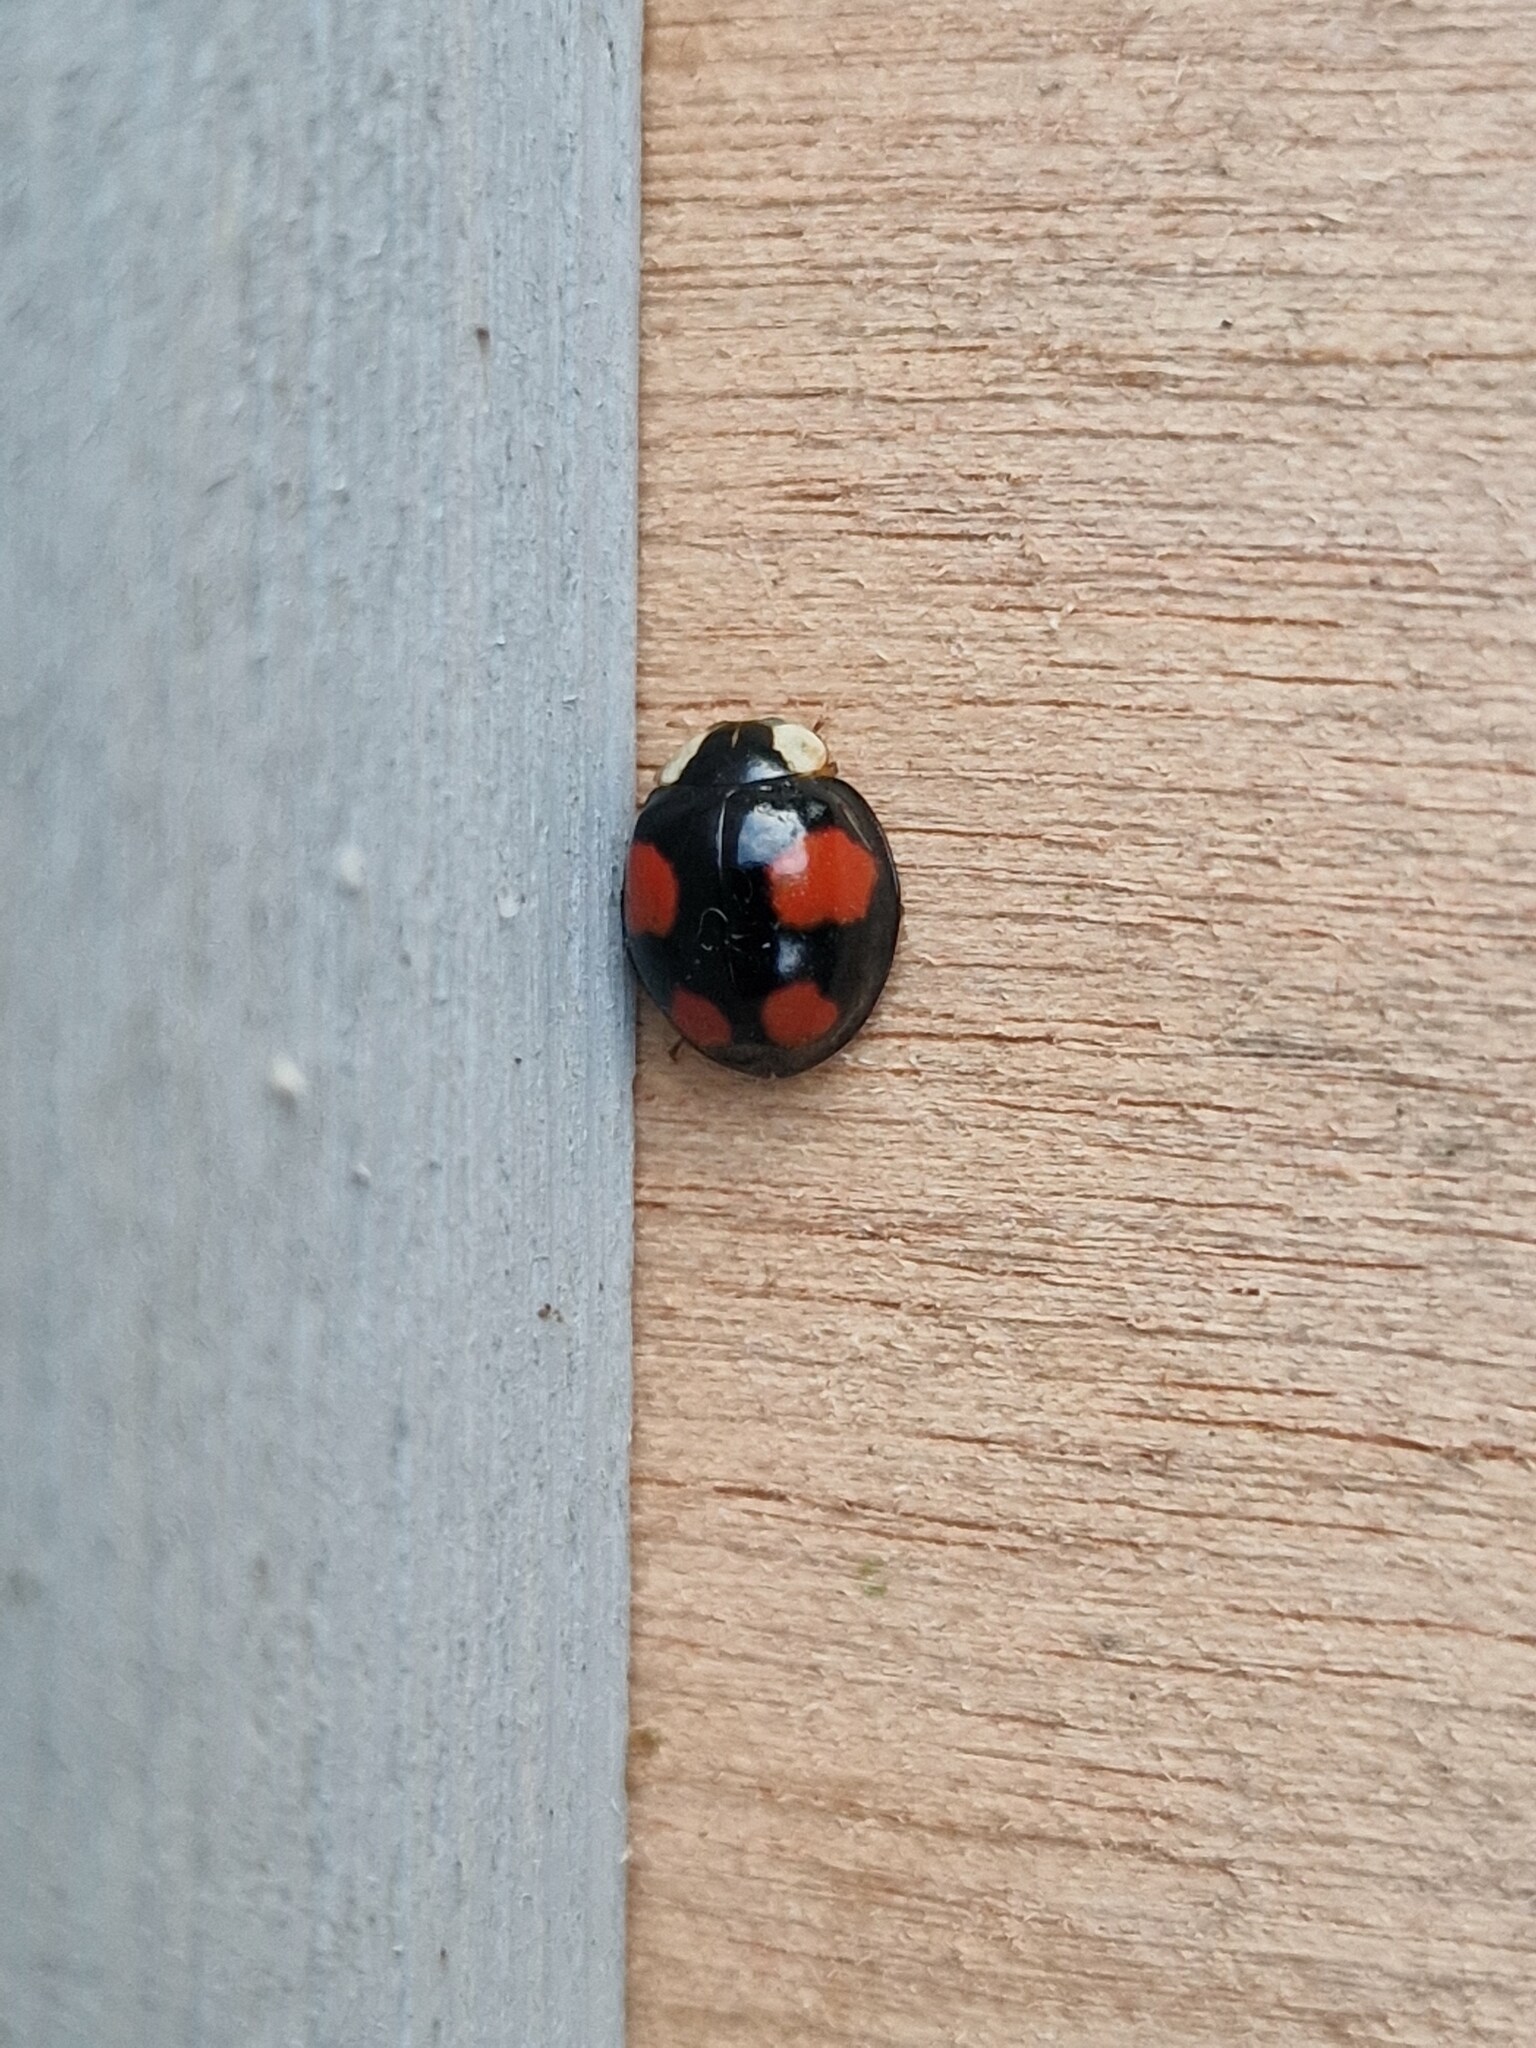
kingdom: Animalia
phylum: Arthropoda
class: Insecta
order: Coleoptera
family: Coccinellidae
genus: Harmonia
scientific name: Harmonia axyridis
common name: Harlequin ladybird
